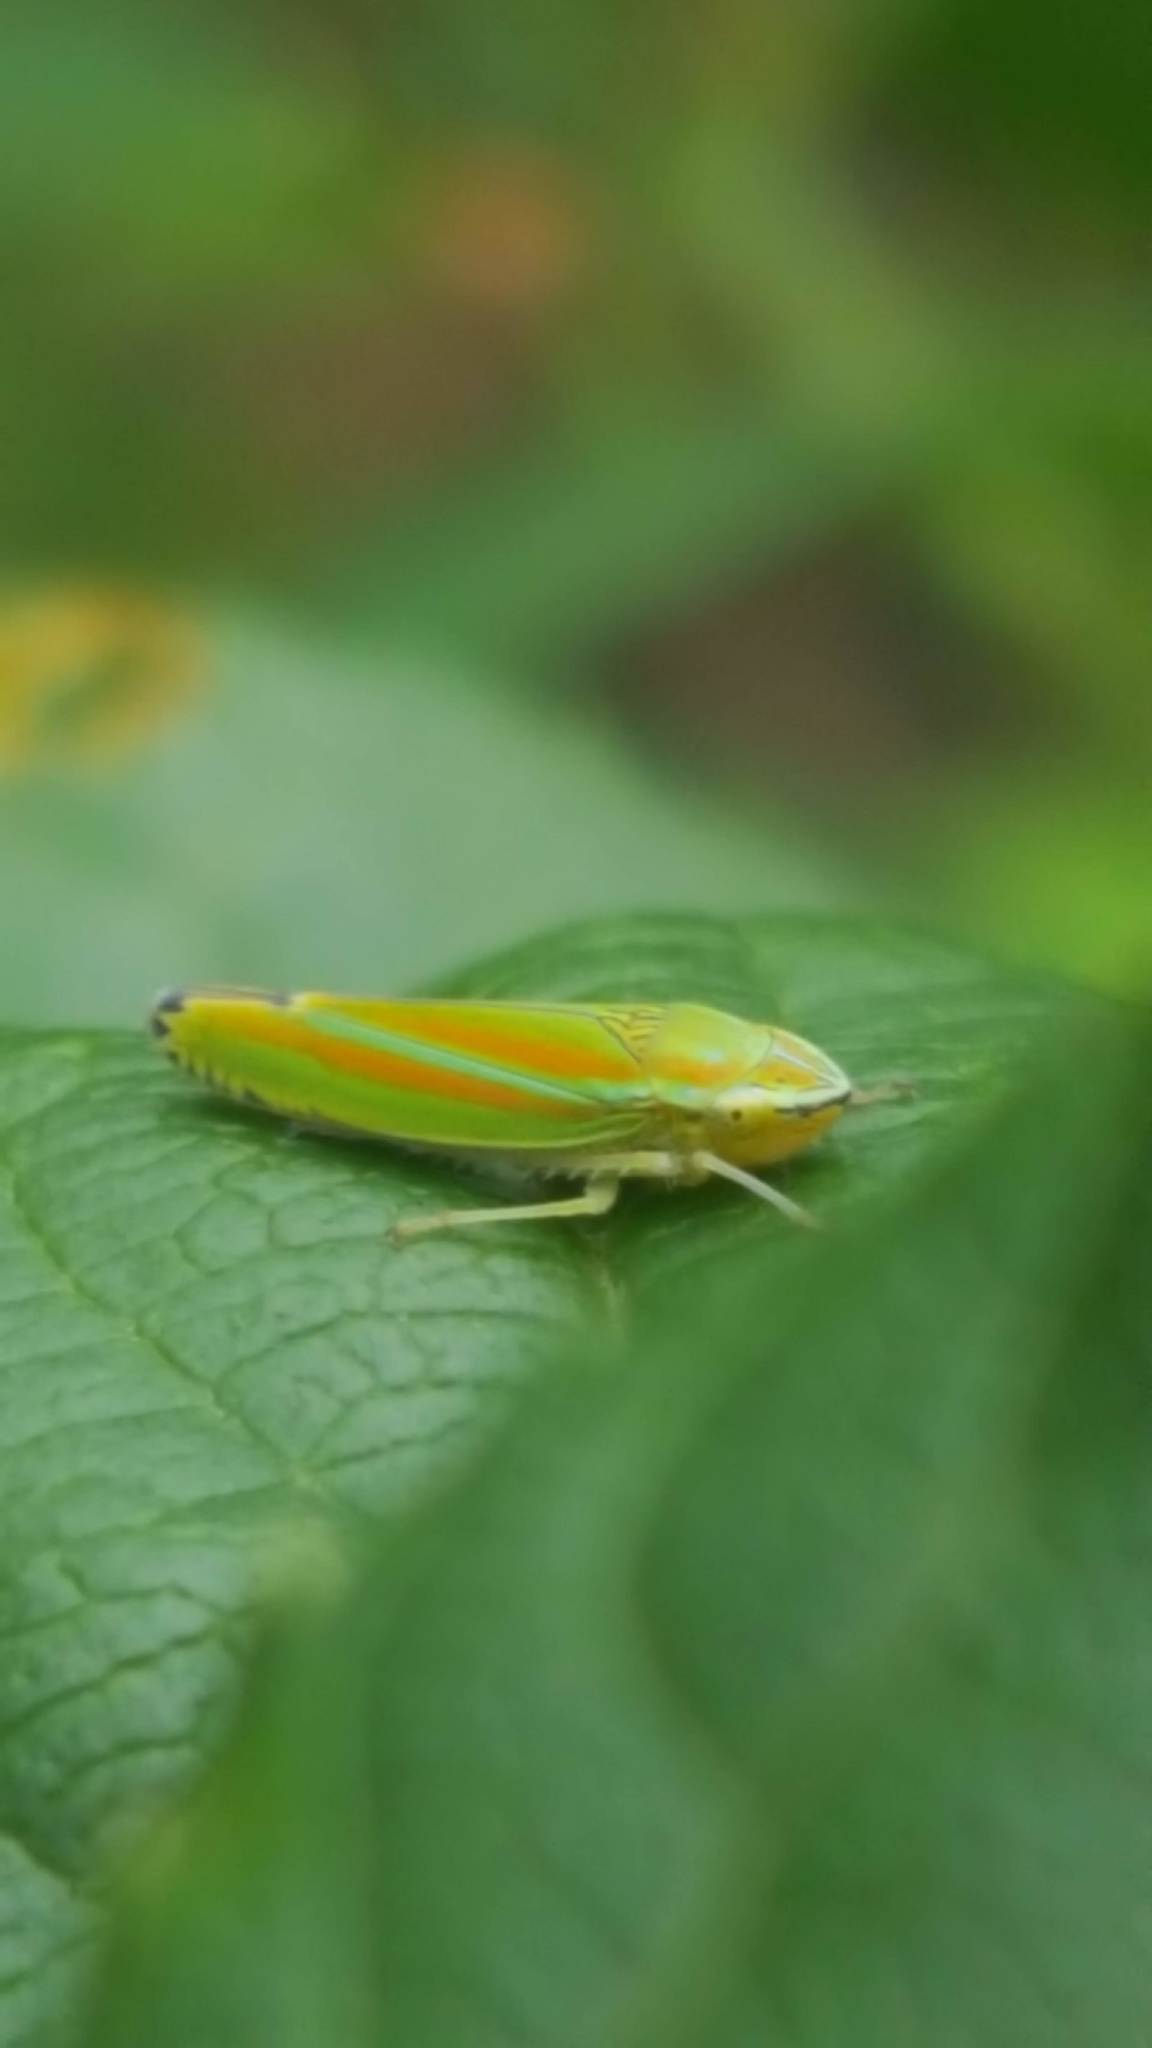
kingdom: Animalia
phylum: Arthropoda
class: Insecta
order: Hemiptera
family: Cicadellidae
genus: Graphocephala
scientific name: Graphocephala versuta
